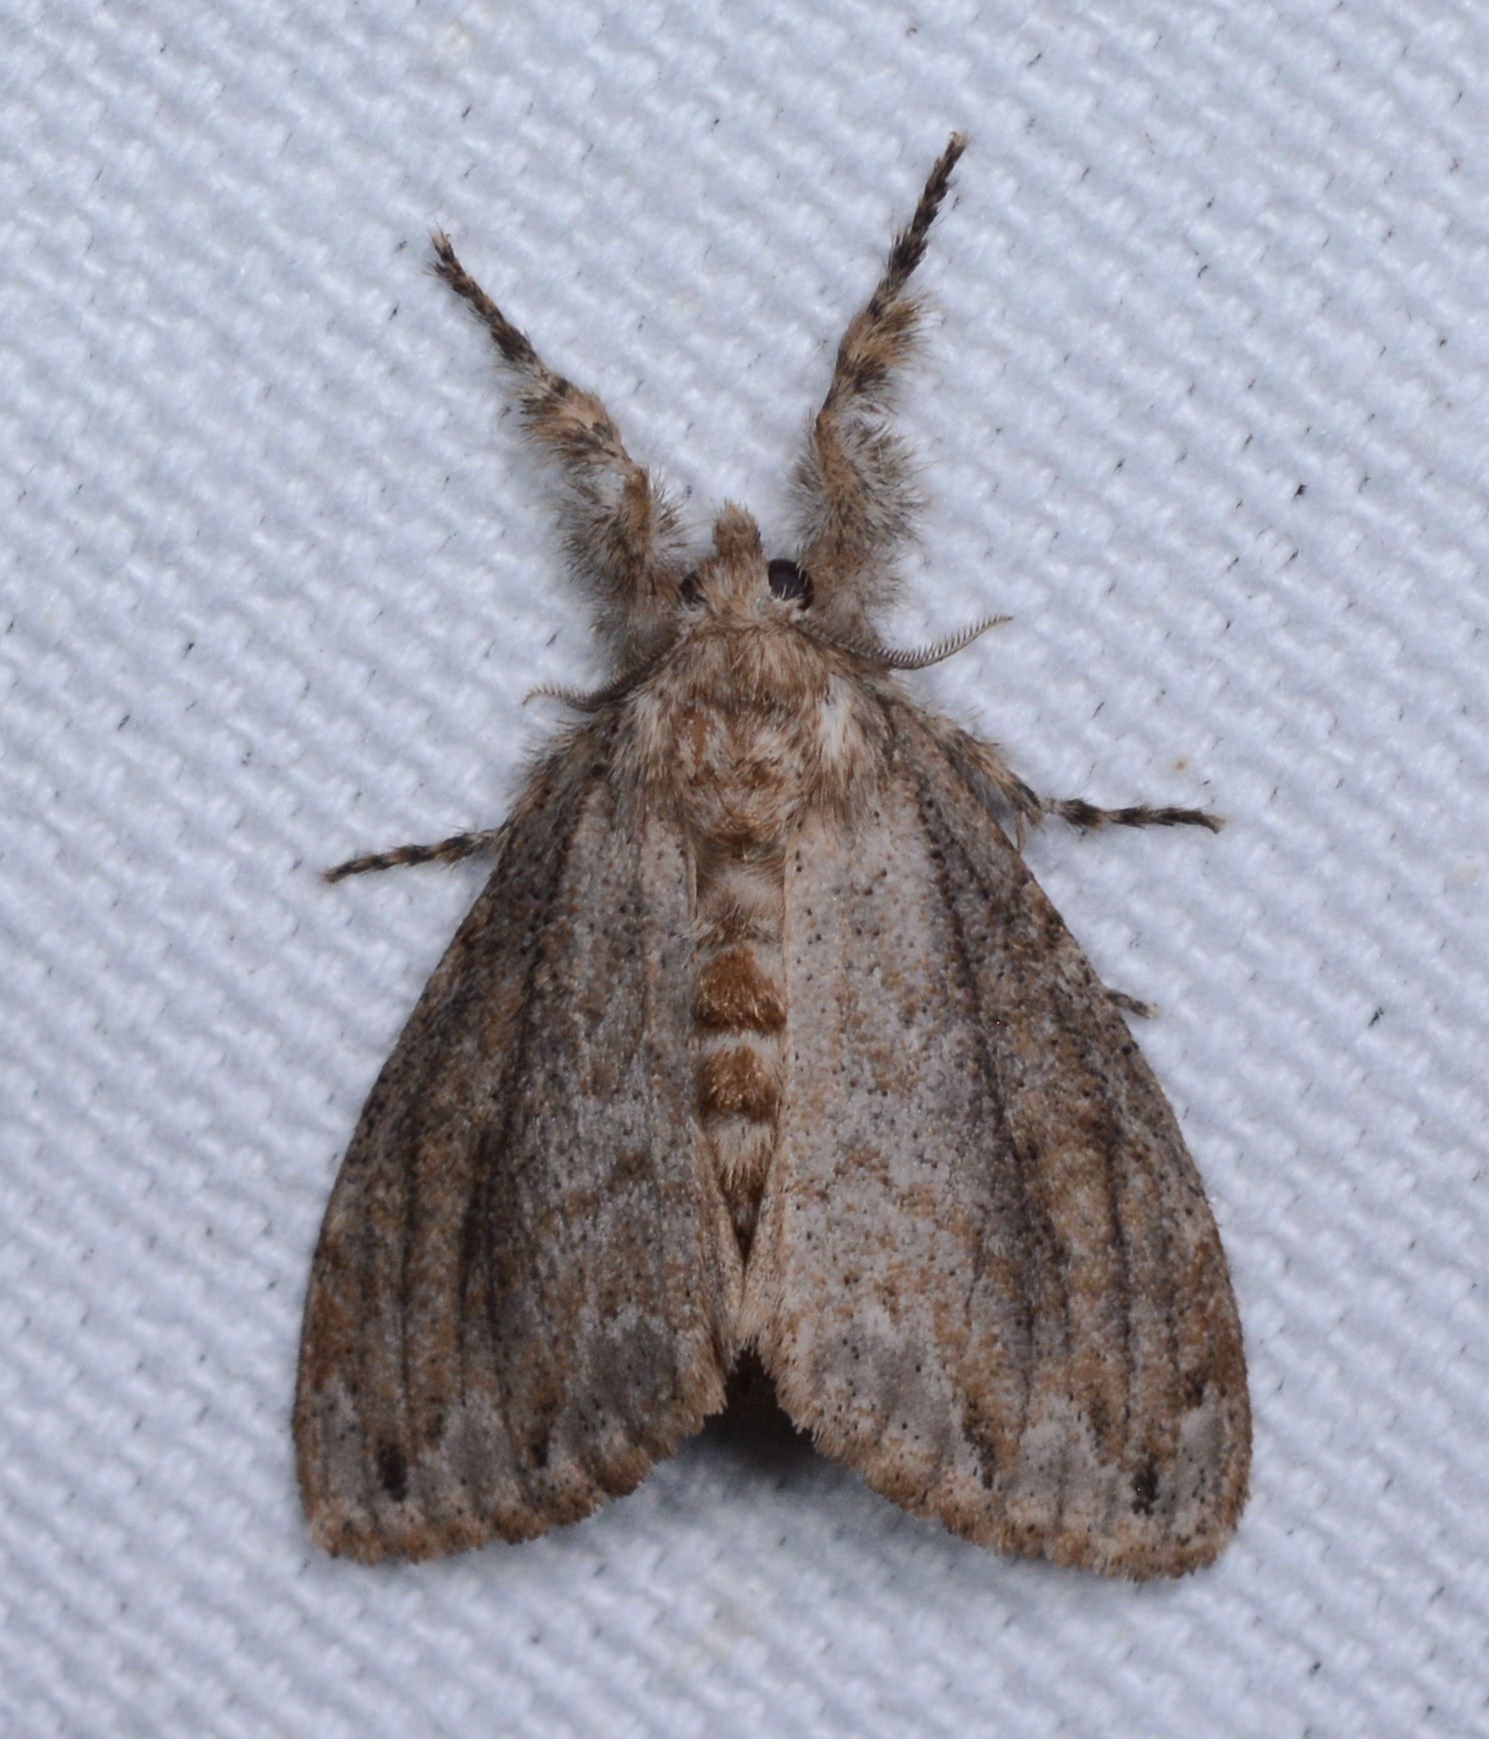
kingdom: Animalia
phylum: Arthropoda
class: Insecta
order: Lepidoptera
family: Erebidae
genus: Dasychira
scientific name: Dasychira atrivenosa
